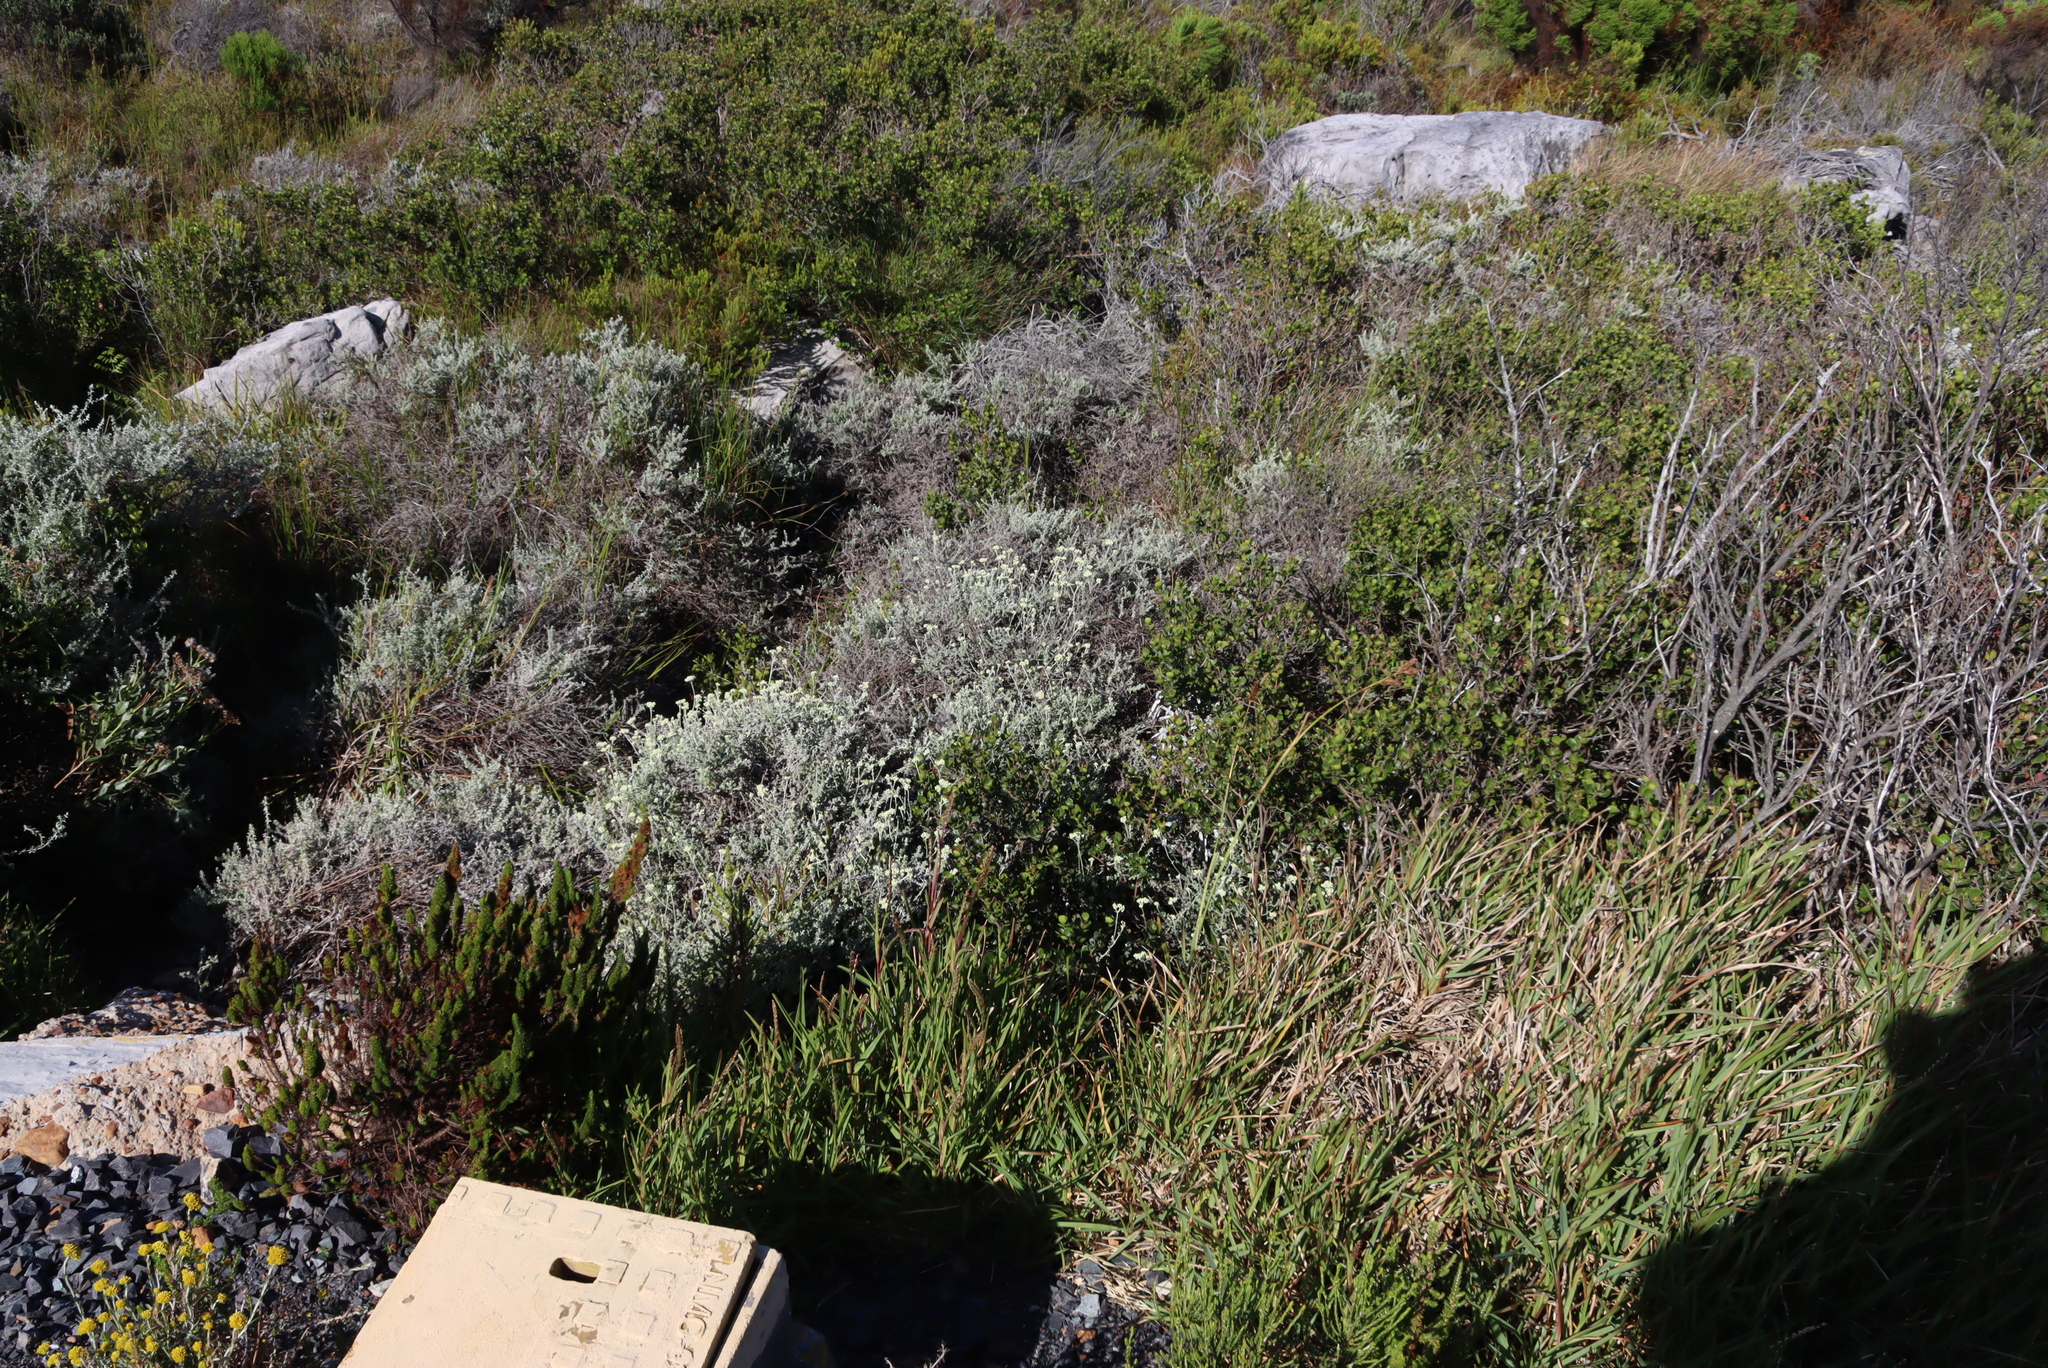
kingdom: Plantae
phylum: Tracheophyta
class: Magnoliopsida
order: Asterales
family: Asteraceae
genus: Plecostachys
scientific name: Plecostachys serpyllifolia
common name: Petite licorice
